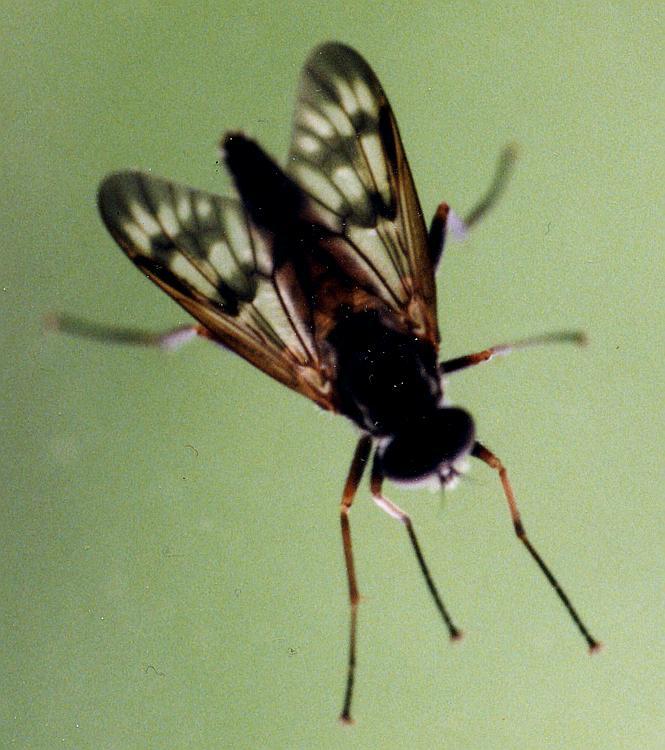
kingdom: Animalia
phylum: Arthropoda
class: Insecta
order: Diptera
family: Rhagionidae
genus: Rhagio
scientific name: Rhagio mystaceus
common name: Common snipe fly
